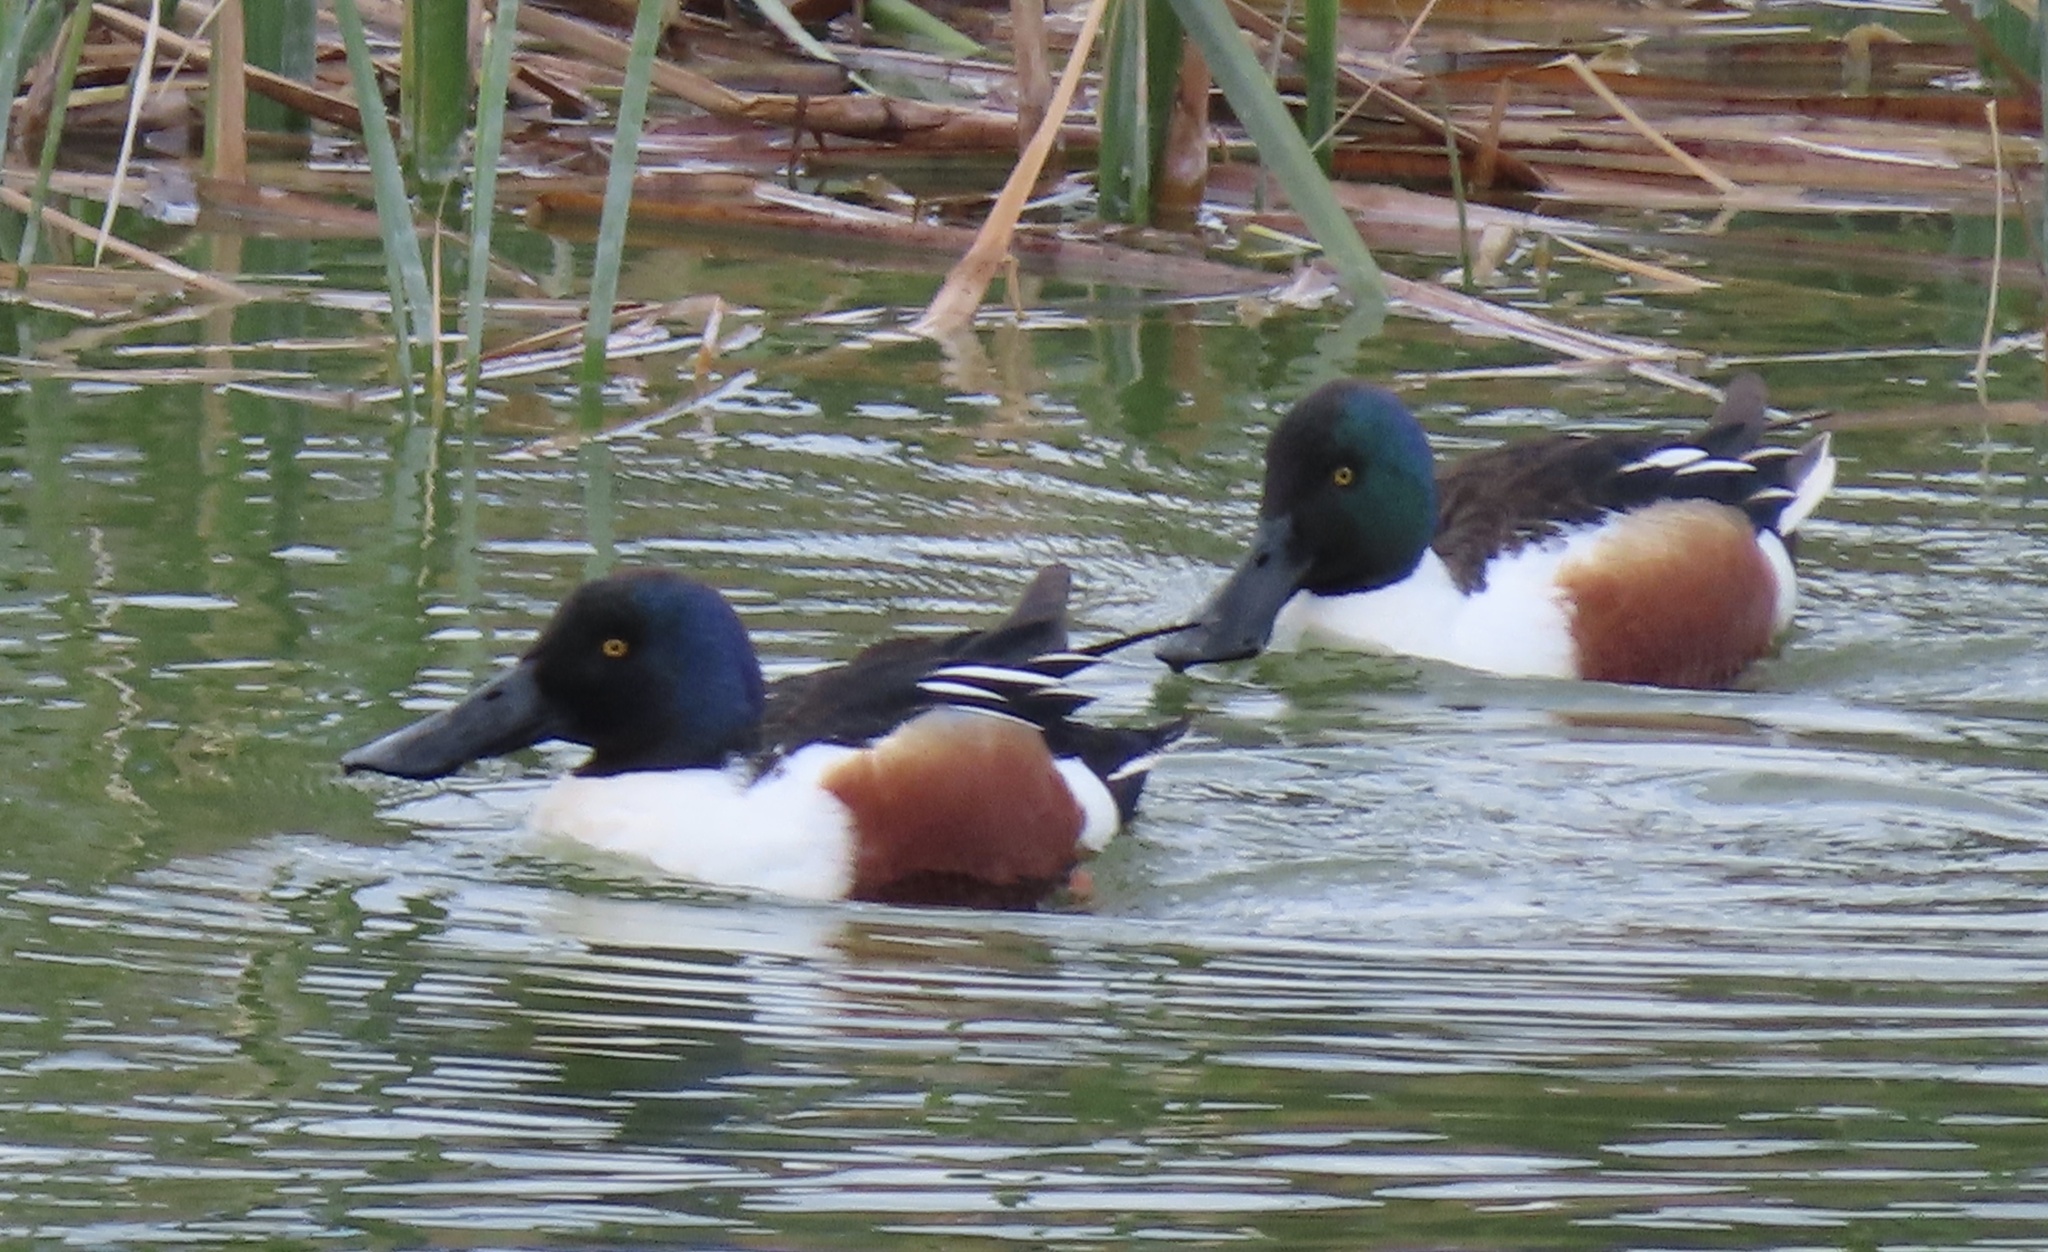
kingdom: Animalia
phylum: Chordata
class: Aves
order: Anseriformes
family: Anatidae
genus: Spatula
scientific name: Spatula clypeata
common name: Northern shoveler
